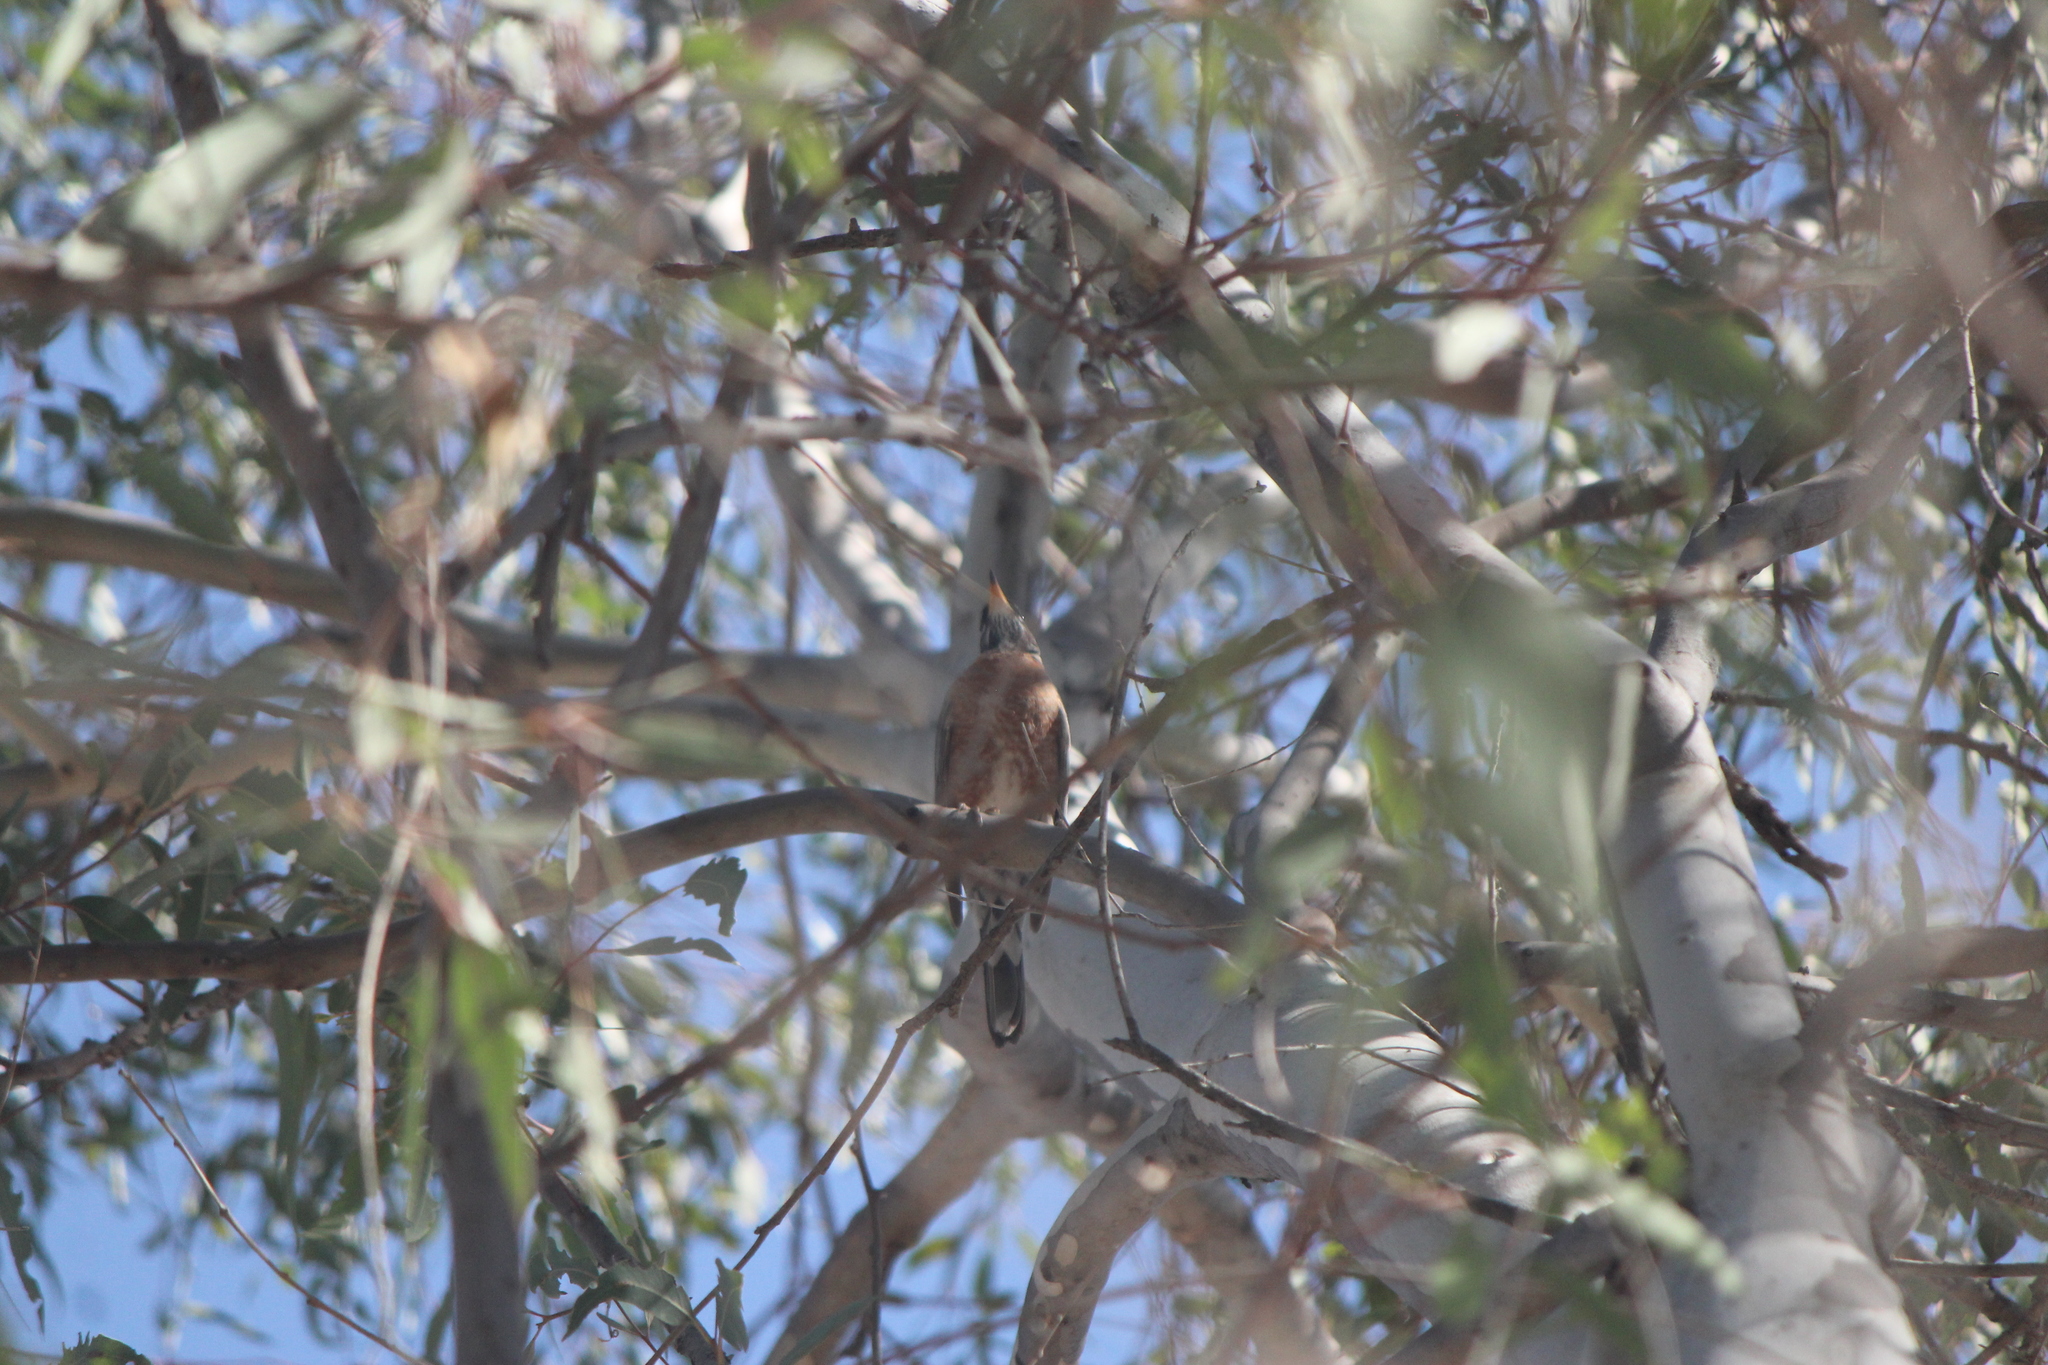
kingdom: Animalia
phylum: Chordata
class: Aves
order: Passeriformes
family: Turdidae
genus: Turdus
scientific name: Turdus migratorius
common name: American robin
